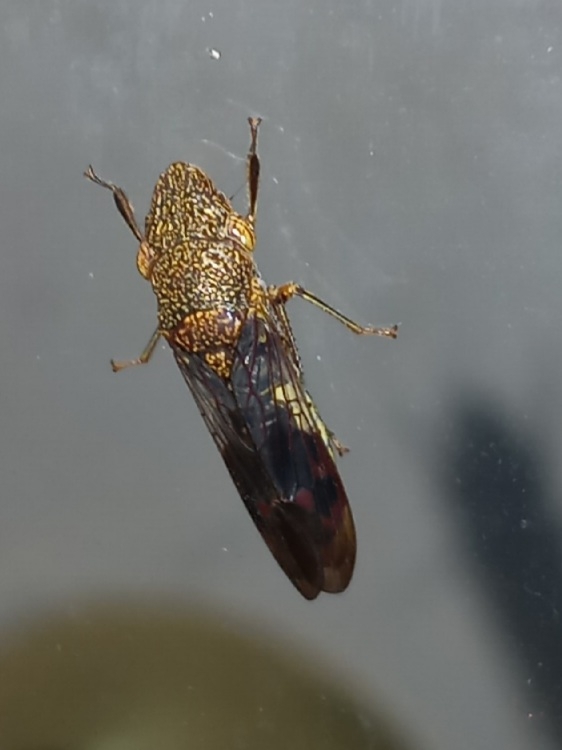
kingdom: Animalia
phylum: Arthropoda
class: Insecta
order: Hemiptera
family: Cicadellidae
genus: Homalodisca
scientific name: Homalodisca vitripennis
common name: Glassy-winged sharpshooter
